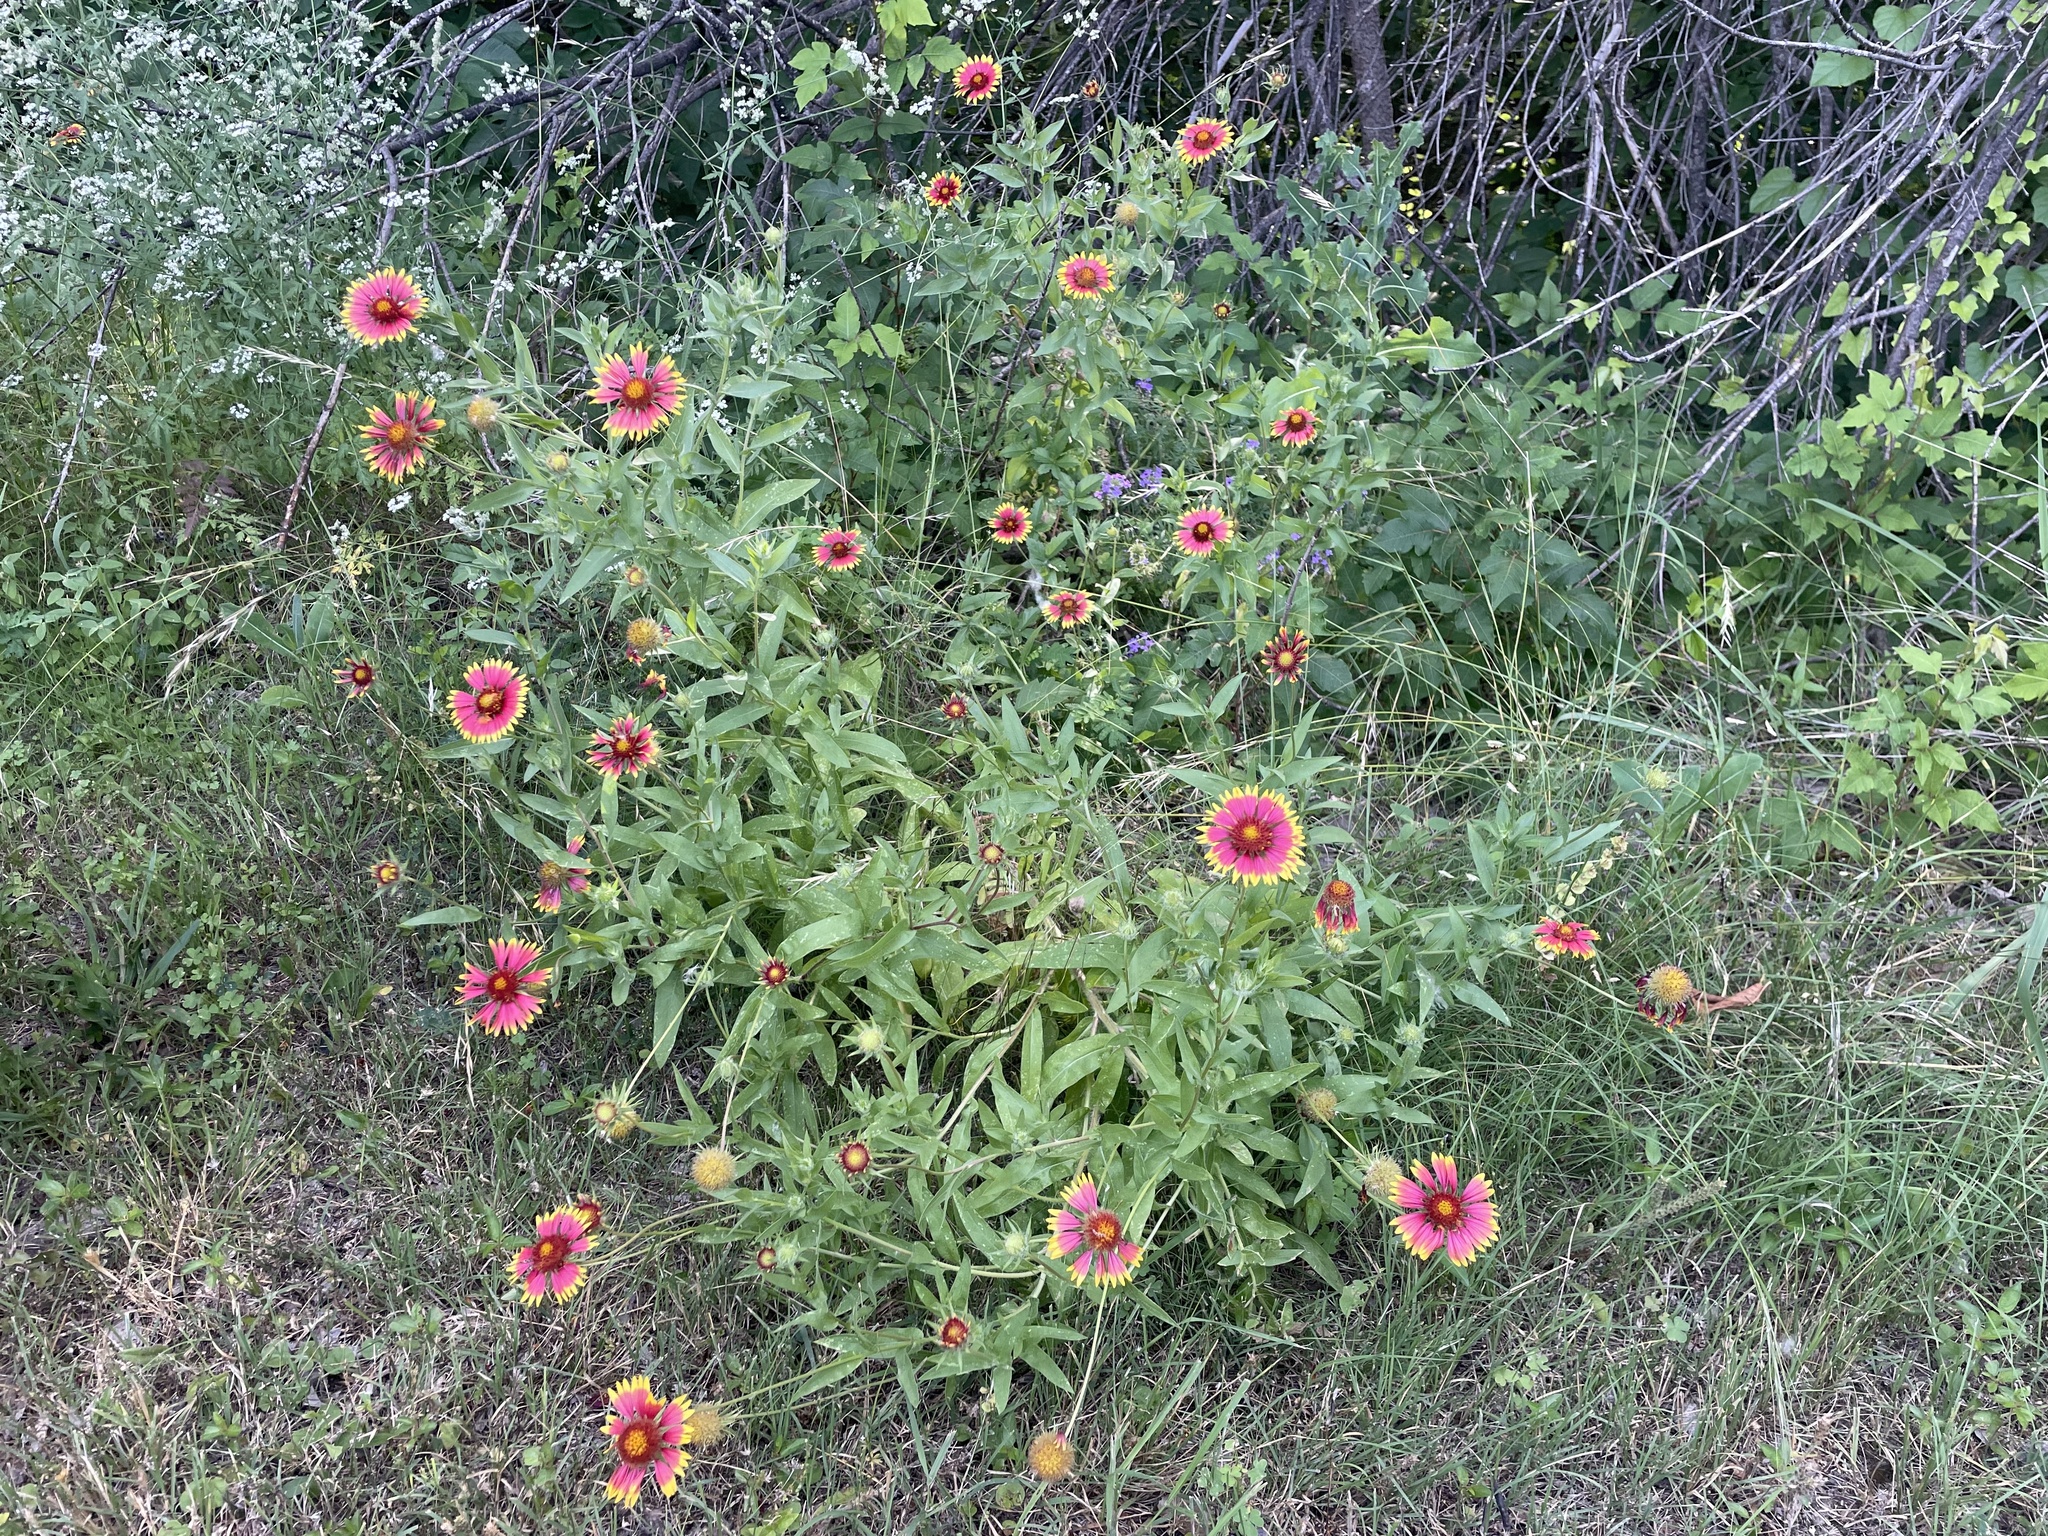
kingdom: Plantae
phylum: Tracheophyta
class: Magnoliopsida
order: Asterales
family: Asteraceae
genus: Gaillardia
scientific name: Gaillardia pulchella
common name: Firewheel
